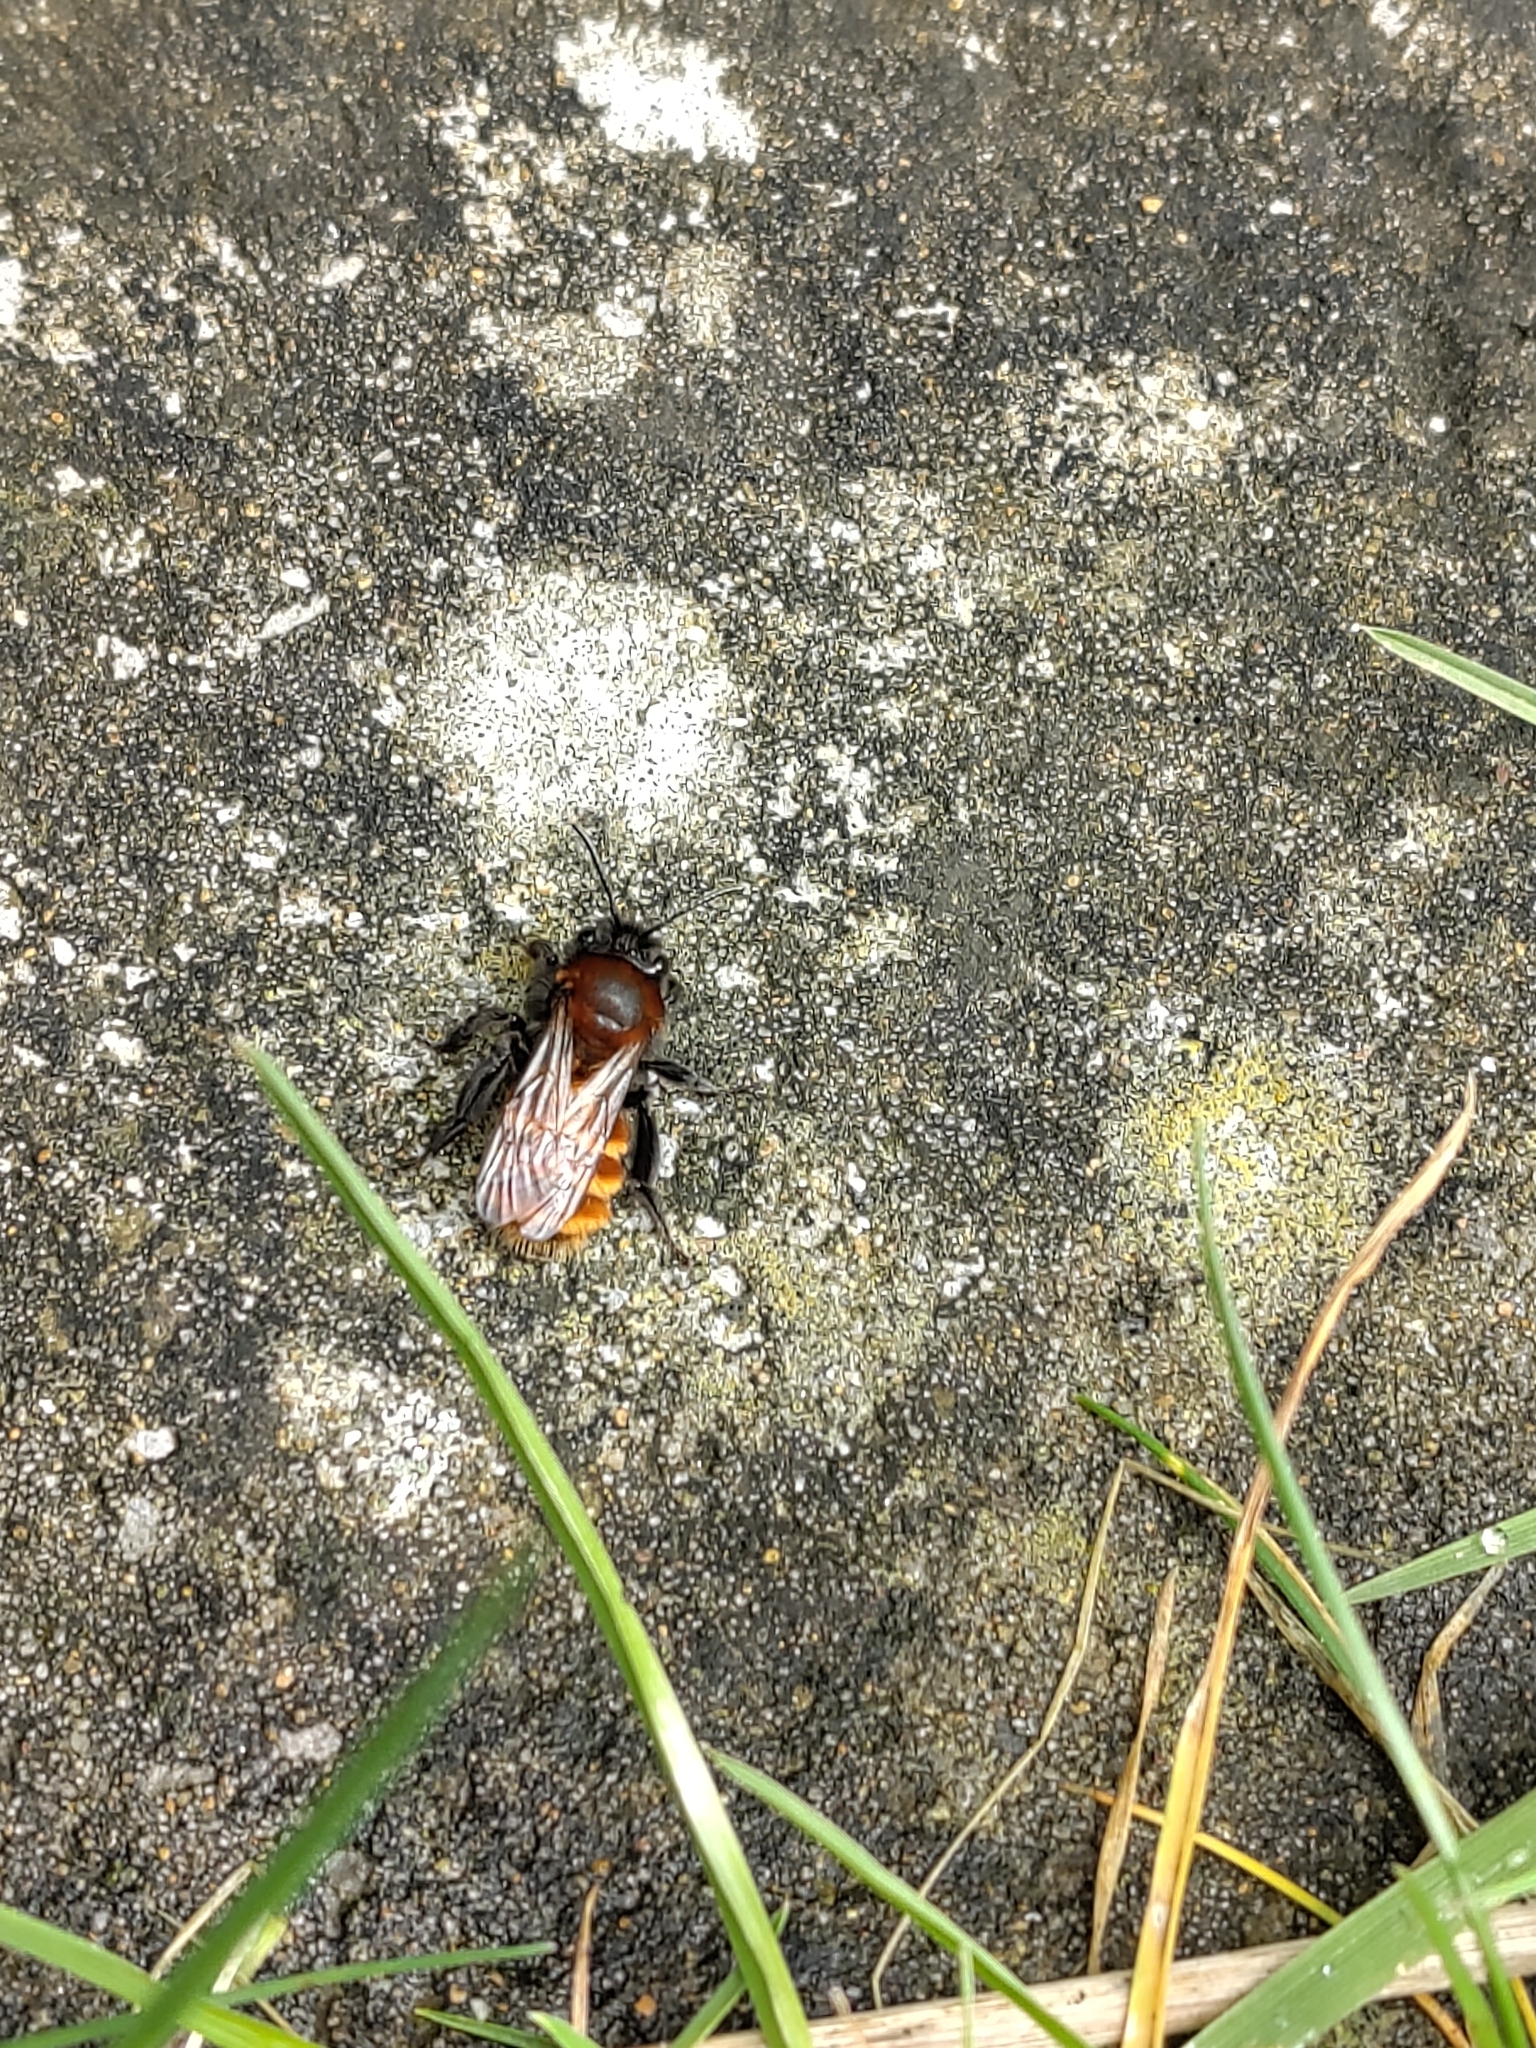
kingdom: Animalia
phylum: Arthropoda
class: Insecta
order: Hymenoptera
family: Andrenidae
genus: Andrena
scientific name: Andrena fulva
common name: Tawny mining bee
